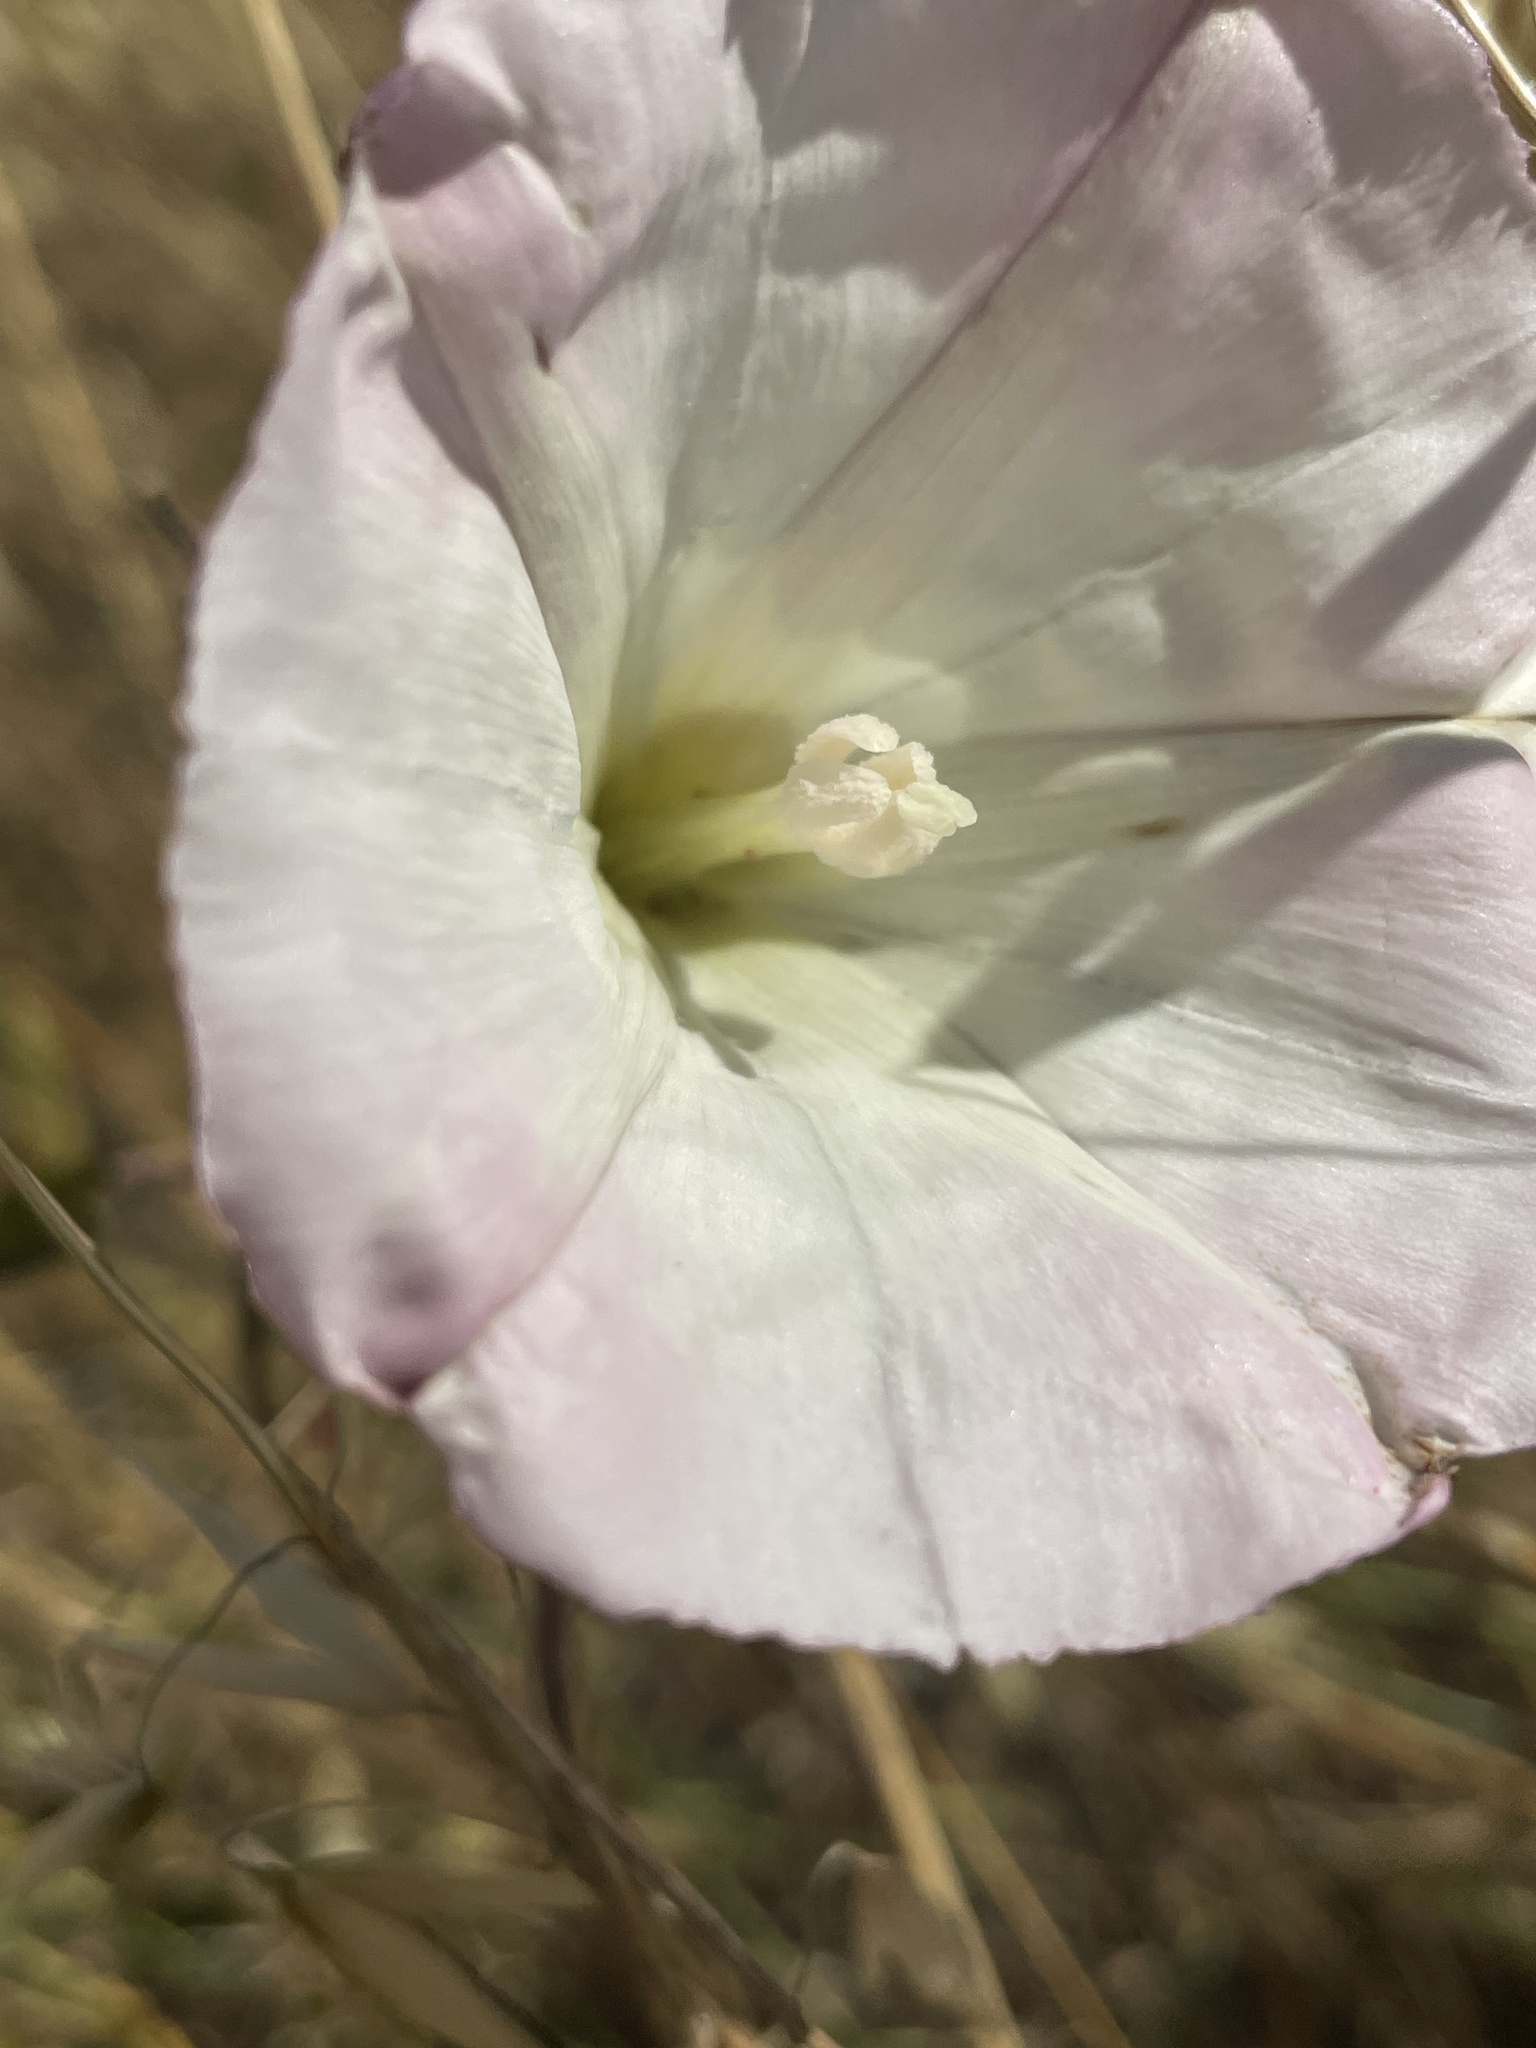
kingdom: Plantae
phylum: Tracheophyta
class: Magnoliopsida
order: Solanales
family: Convolvulaceae
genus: Calystegia
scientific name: Calystegia purpurata
